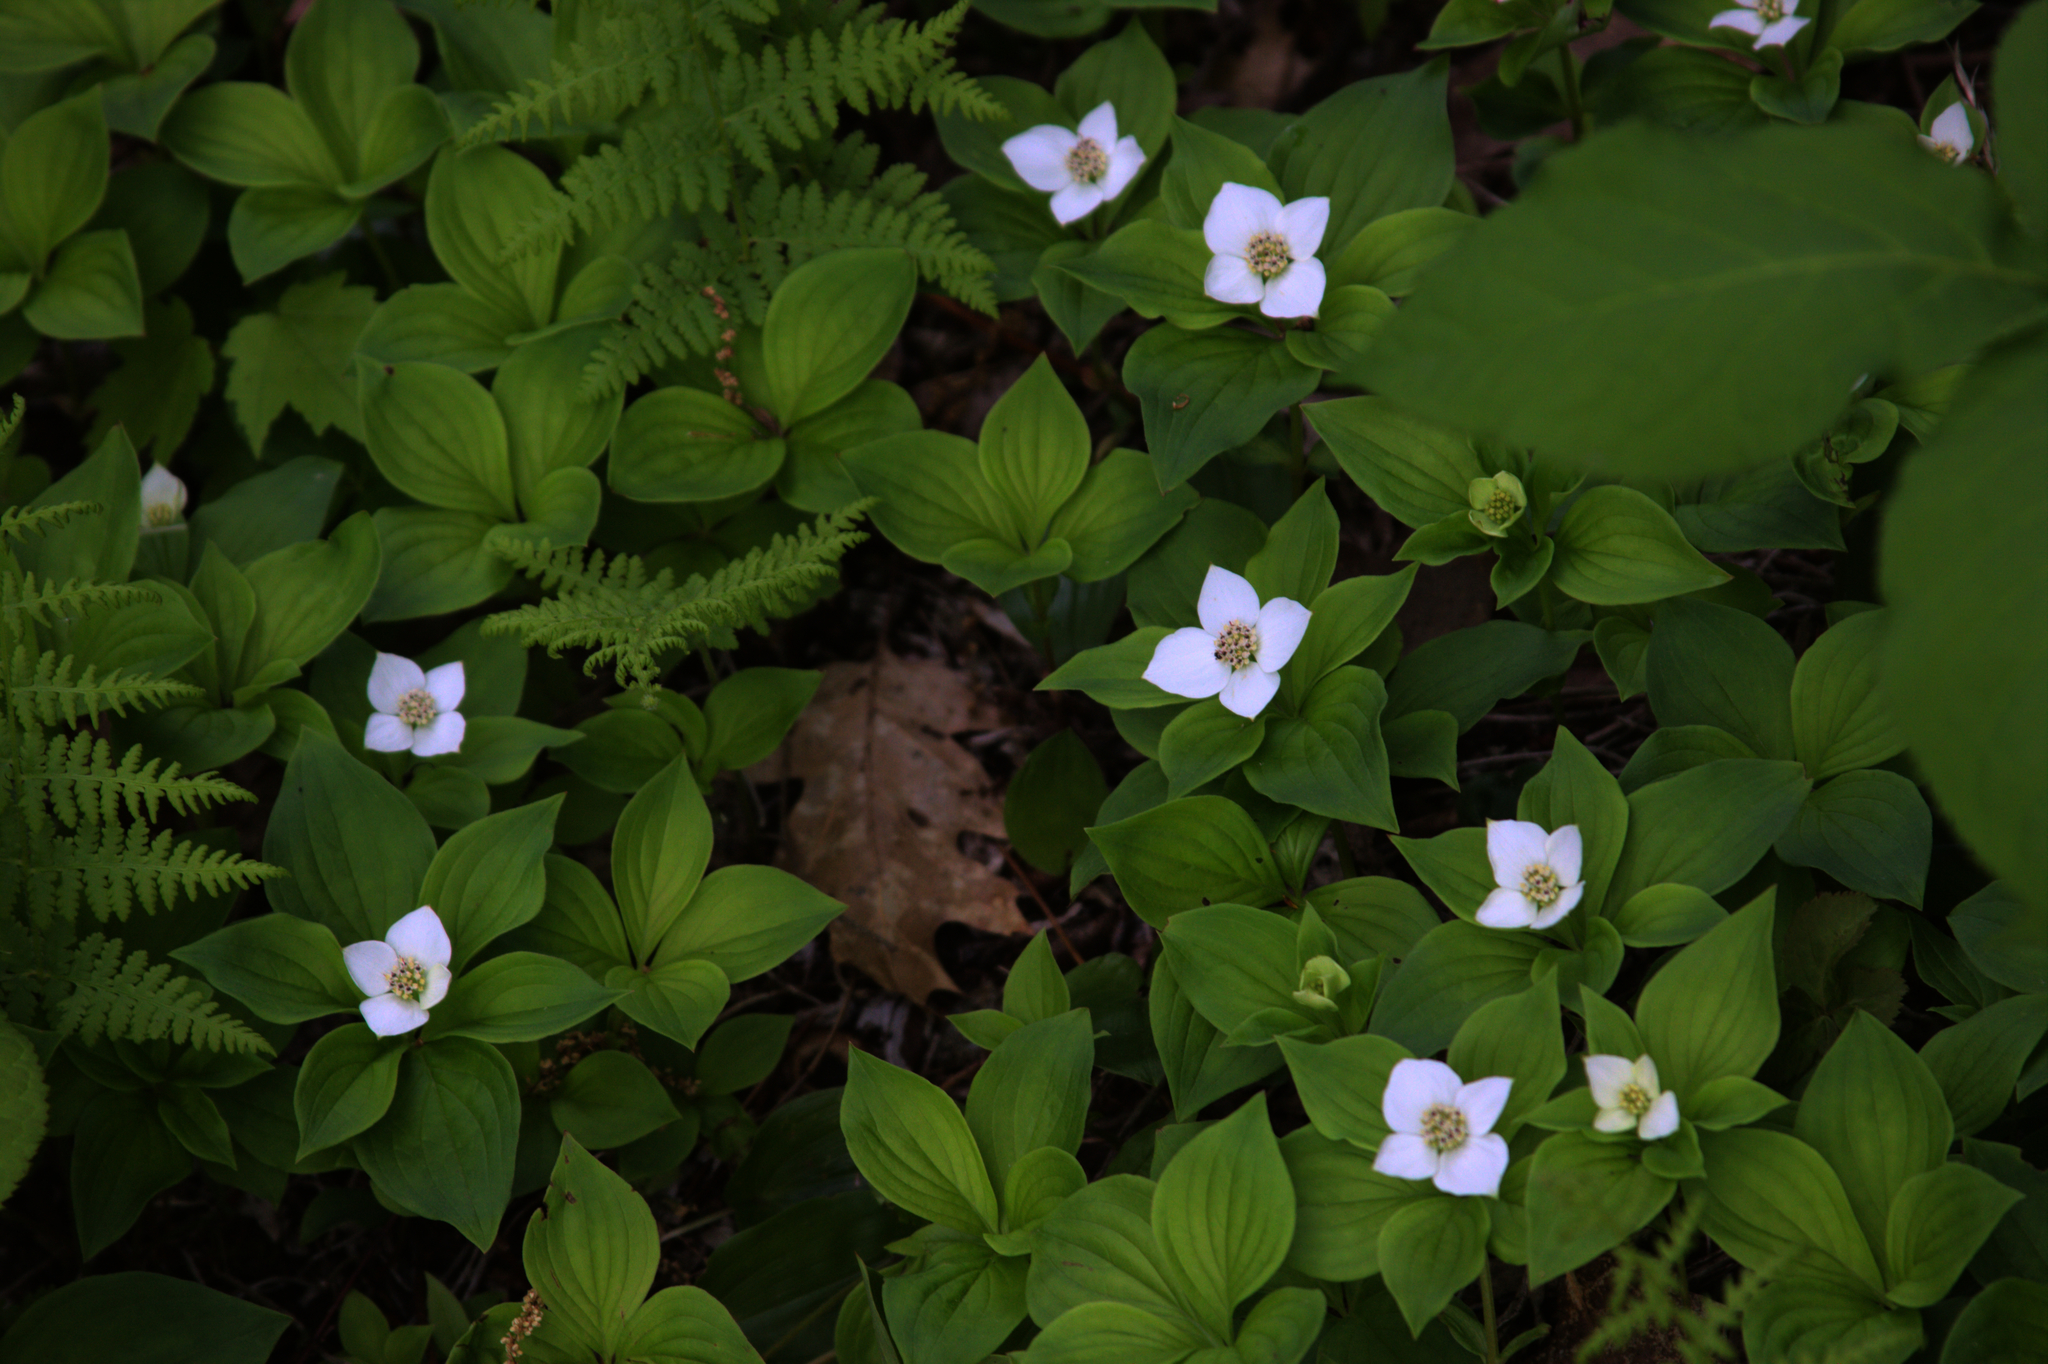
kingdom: Plantae
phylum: Tracheophyta
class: Magnoliopsida
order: Cornales
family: Cornaceae
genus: Cornus
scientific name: Cornus canadensis
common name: Creeping dogwood
